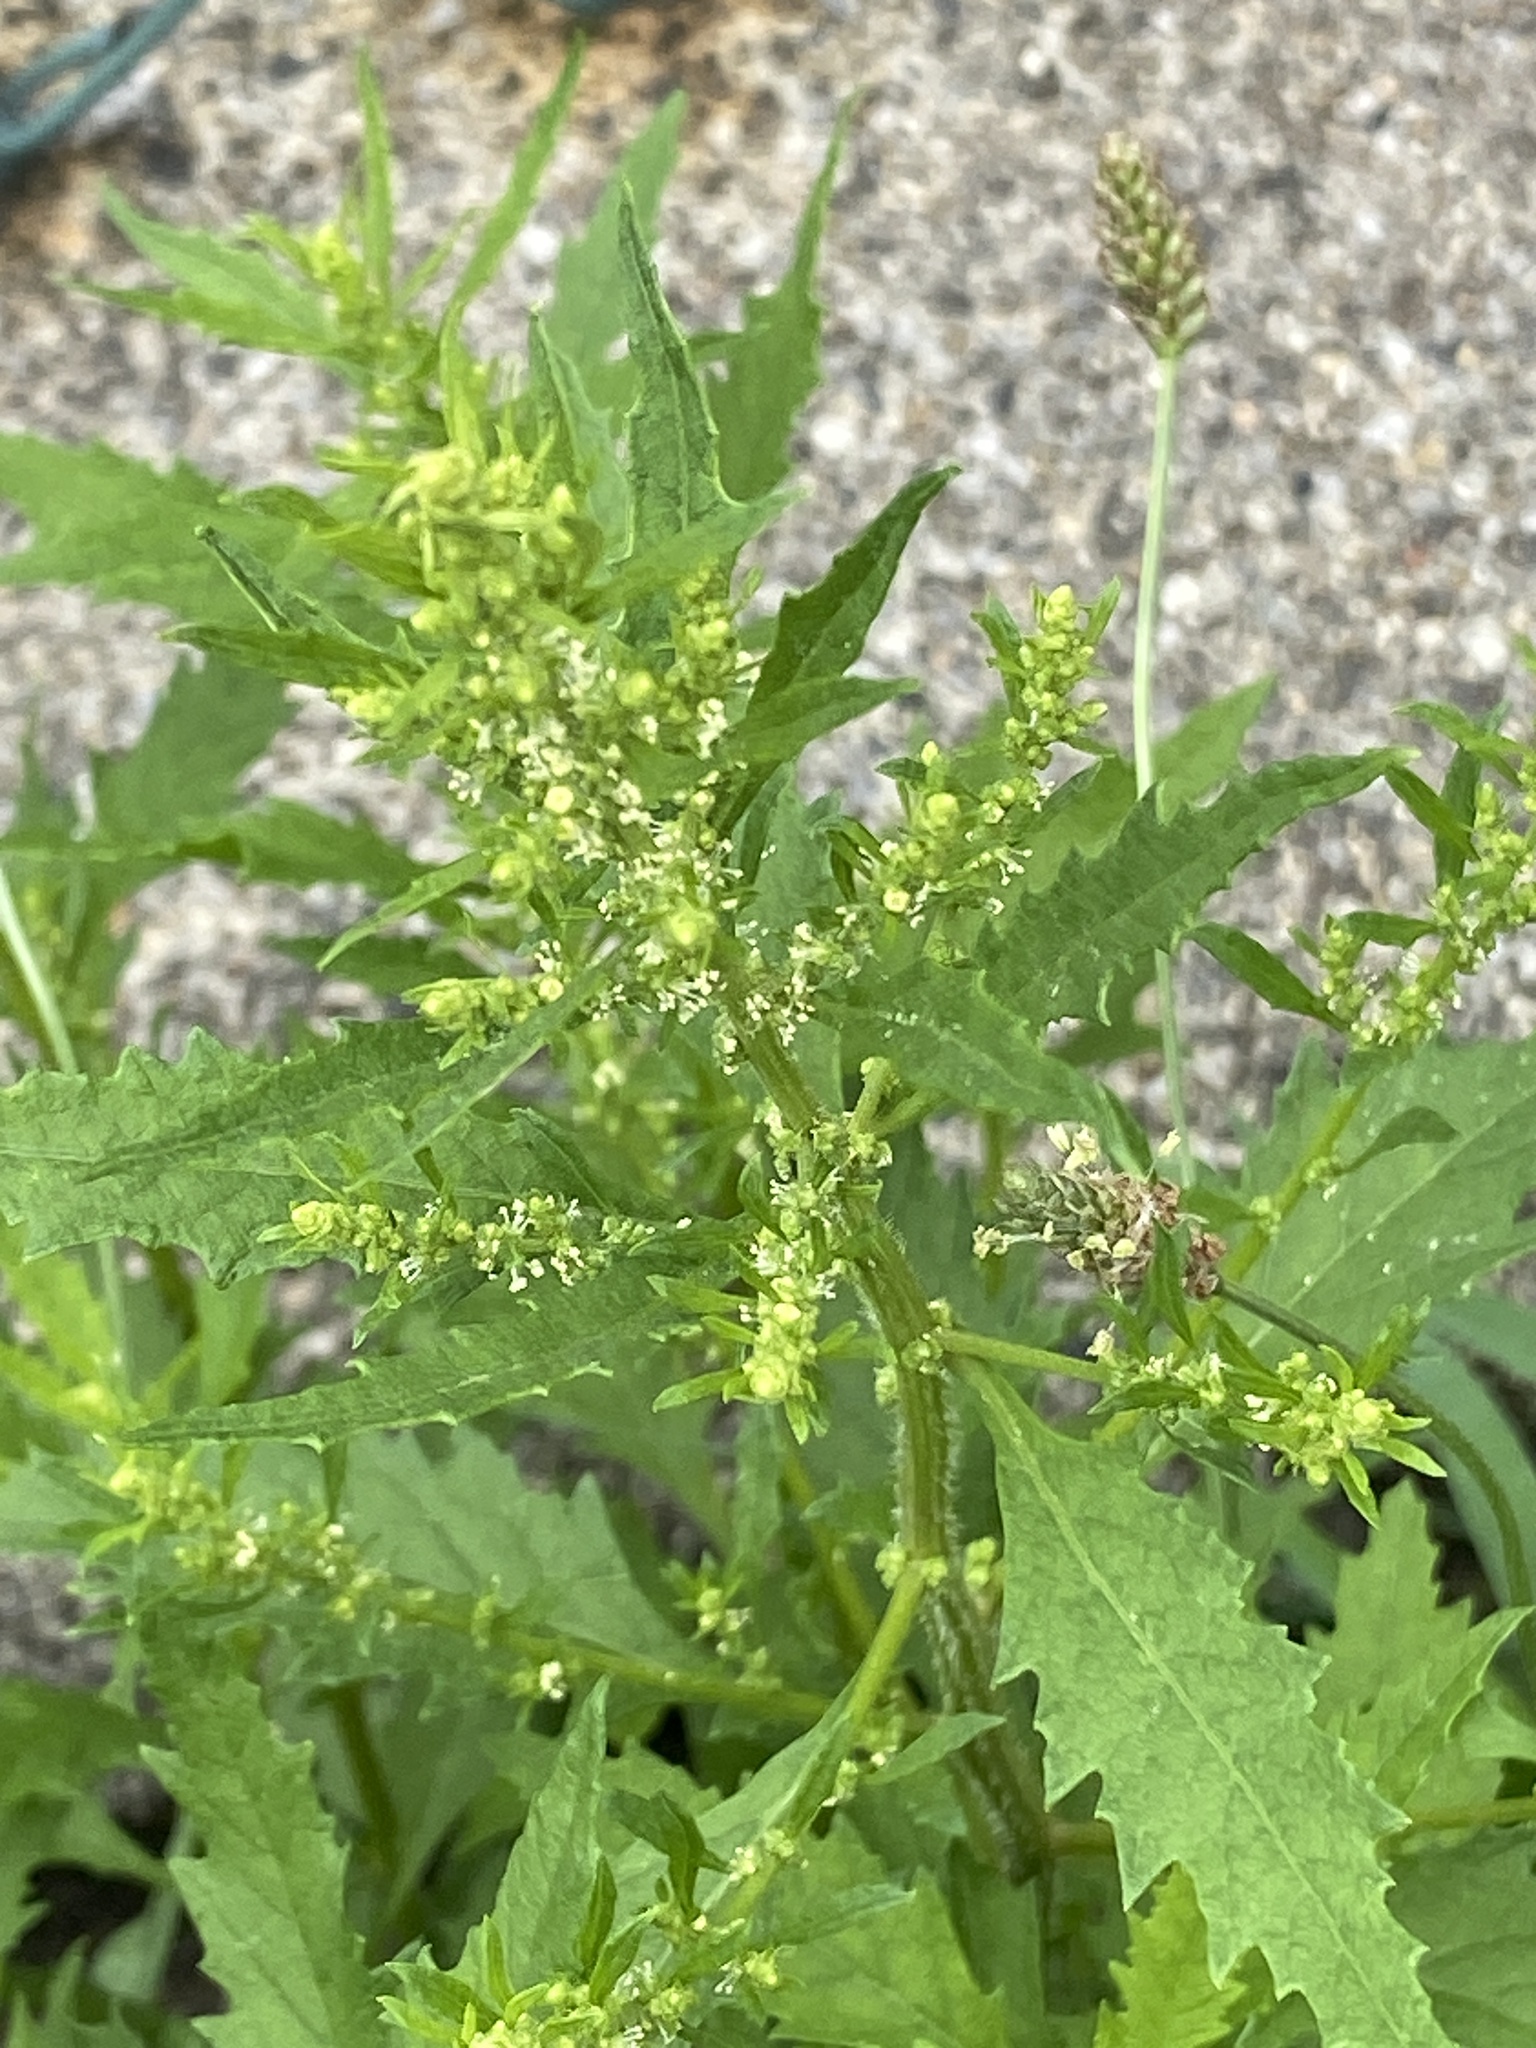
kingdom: Plantae
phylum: Tracheophyta
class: Magnoliopsida
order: Caryophyllales
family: Amaranthaceae
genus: Dysphania
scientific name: Dysphania ambrosioides
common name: Wormseed
